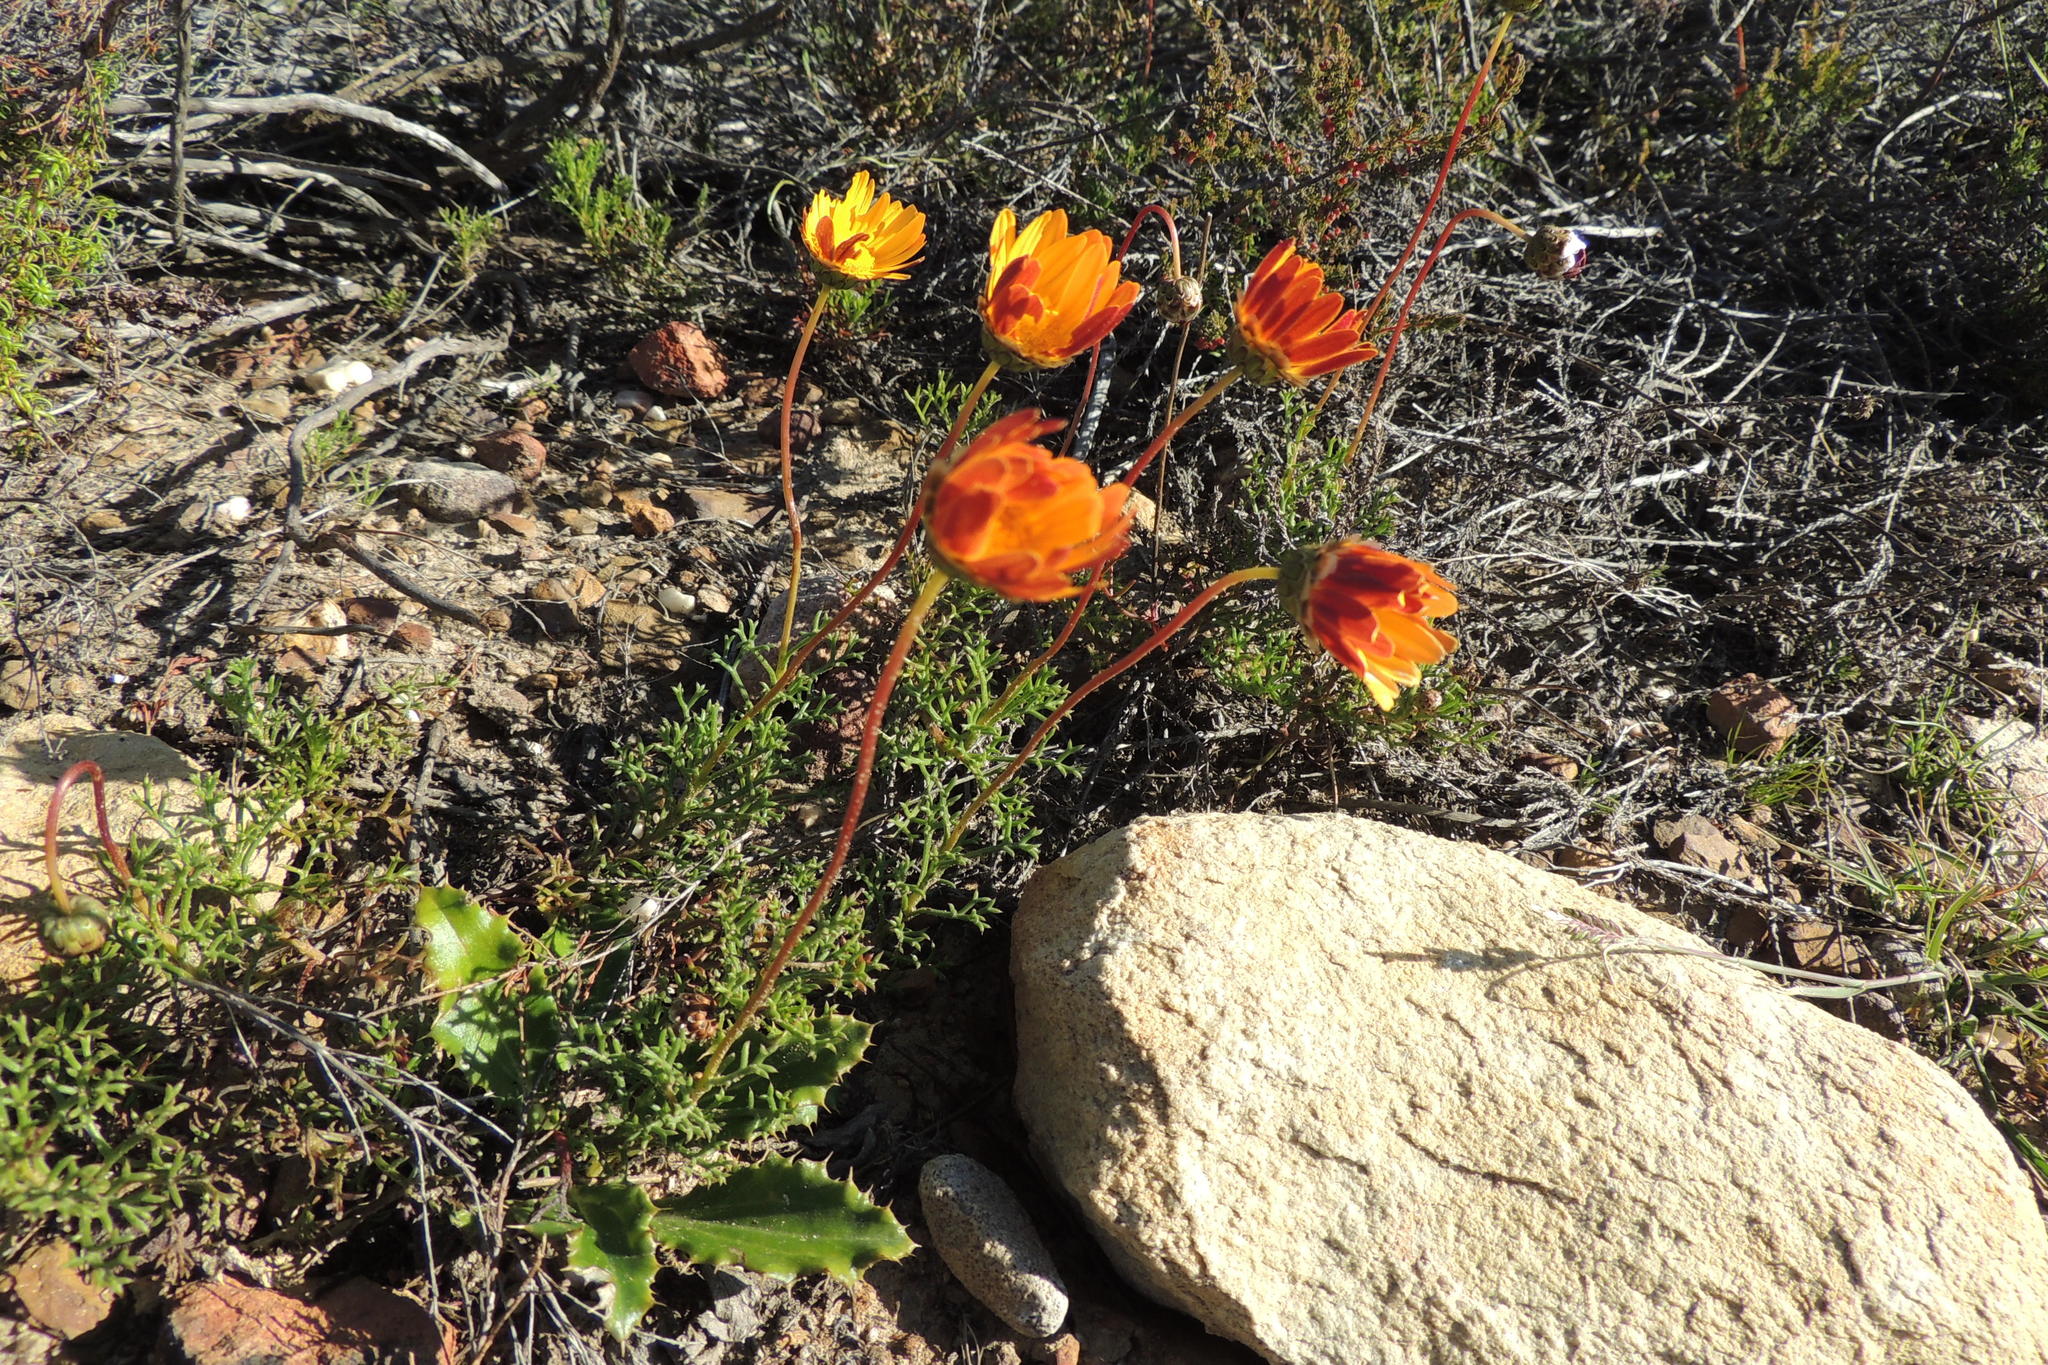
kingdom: Plantae
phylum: Tracheophyta
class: Magnoliopsida
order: Asterales
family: Asteraceae
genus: Ursinia
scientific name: Ursinia rigidula
